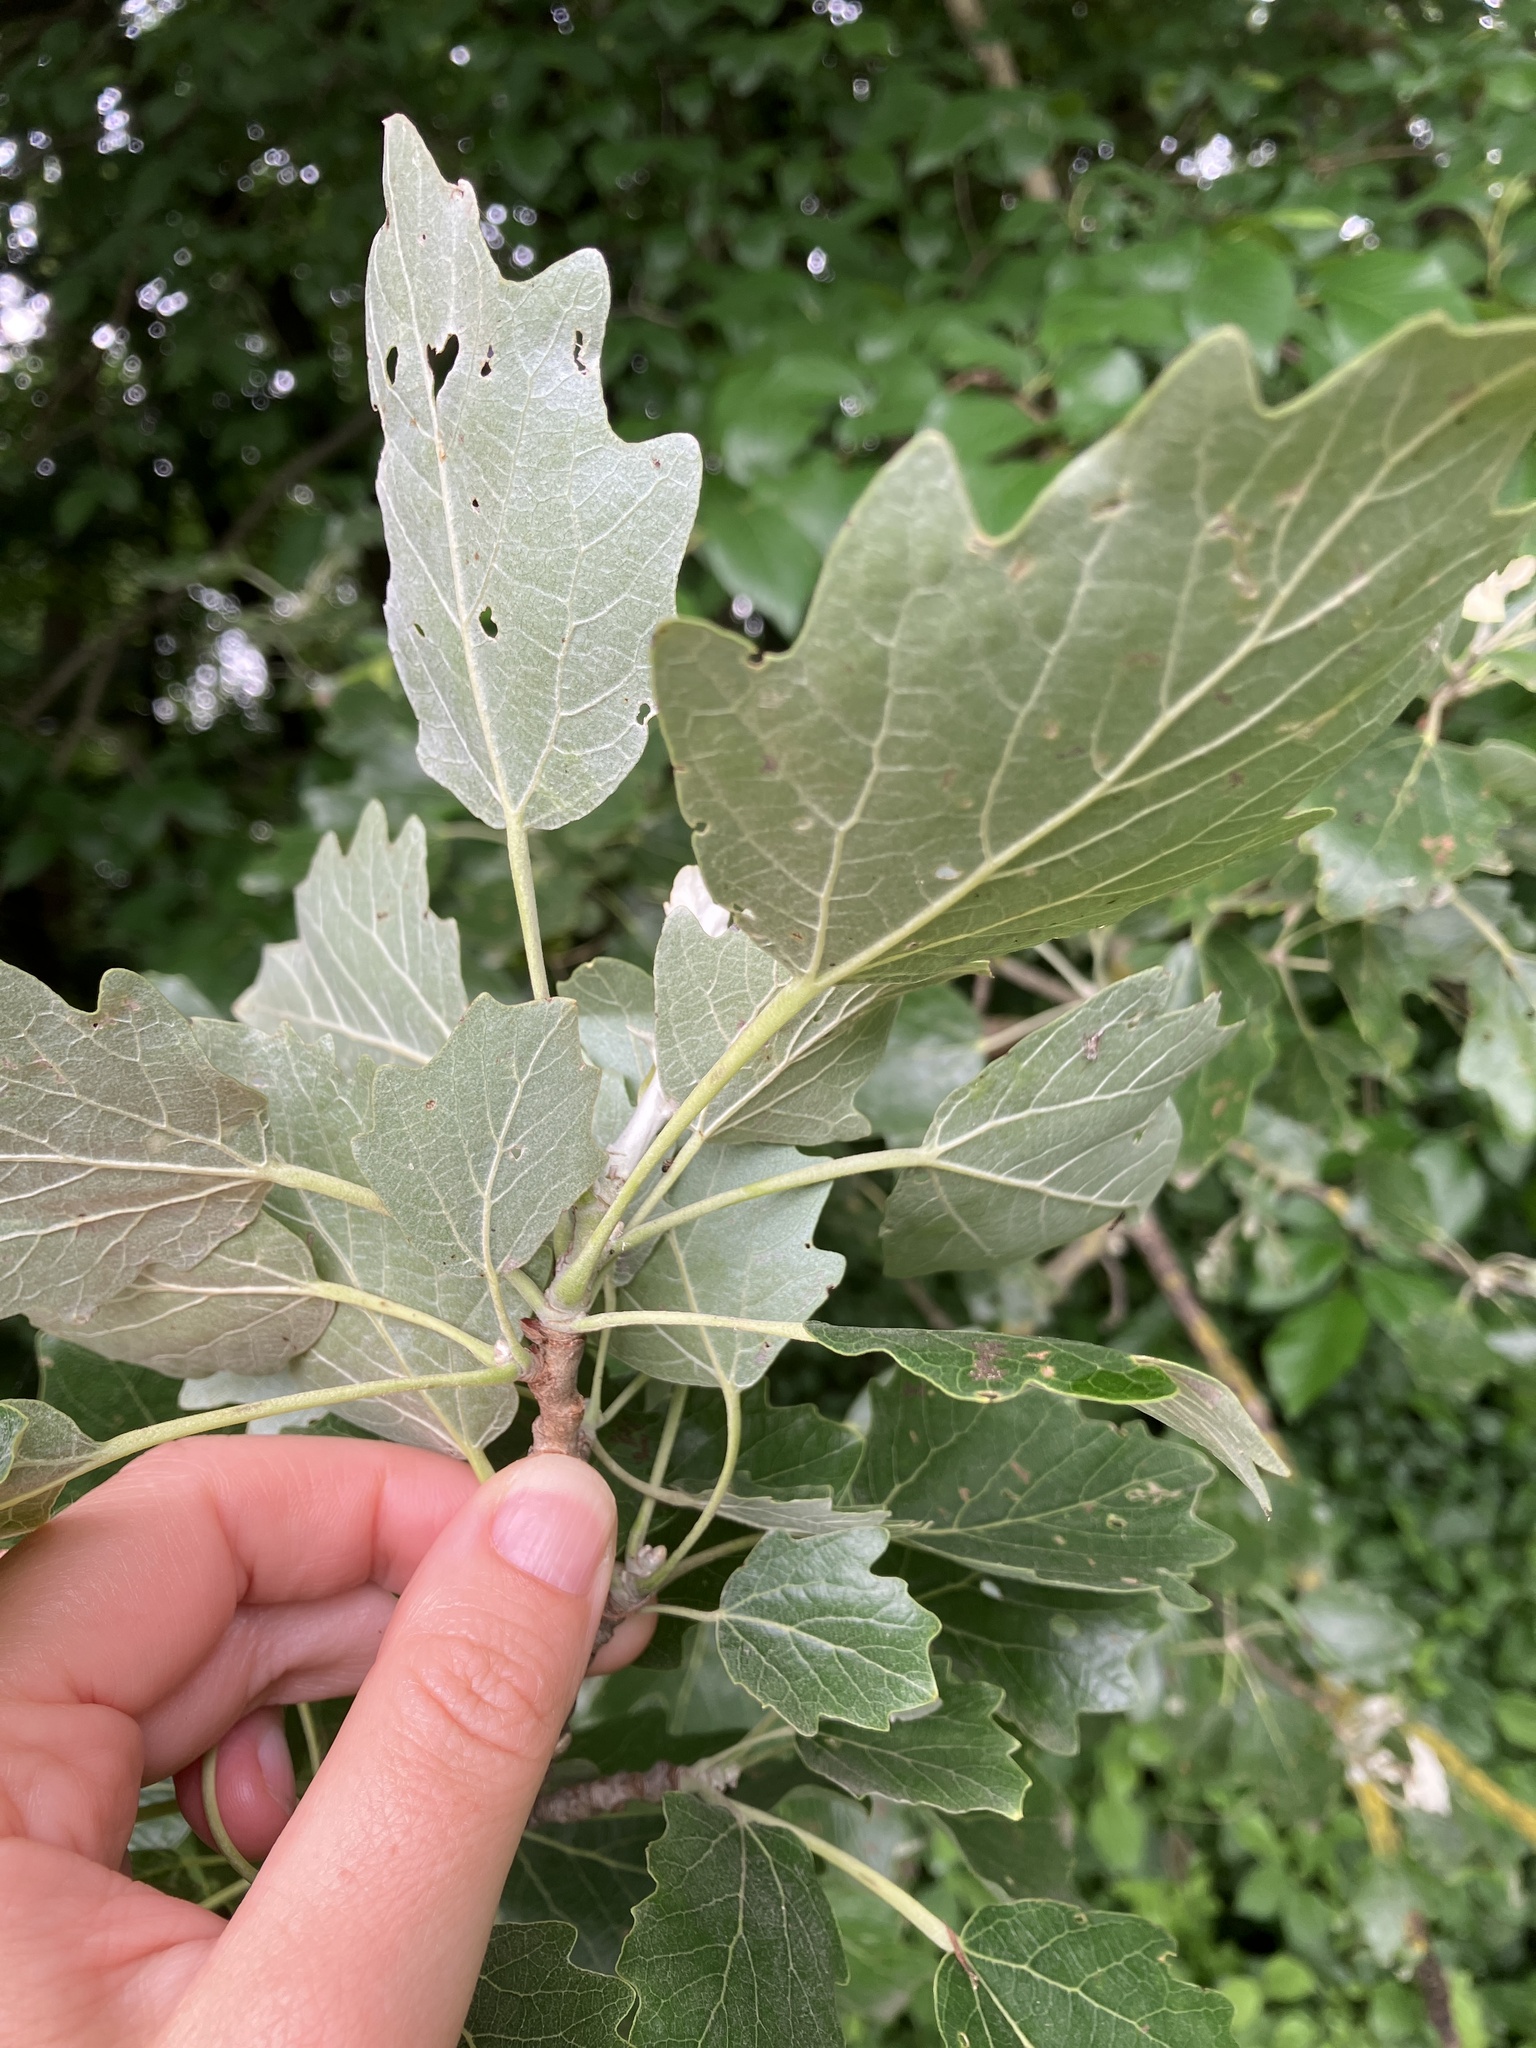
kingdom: Plantae
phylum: Tracheophyta
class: Magnoliopsida
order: Malpighiales
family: Salicaceae
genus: Populus
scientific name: Populus canescens
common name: Gray poplar
